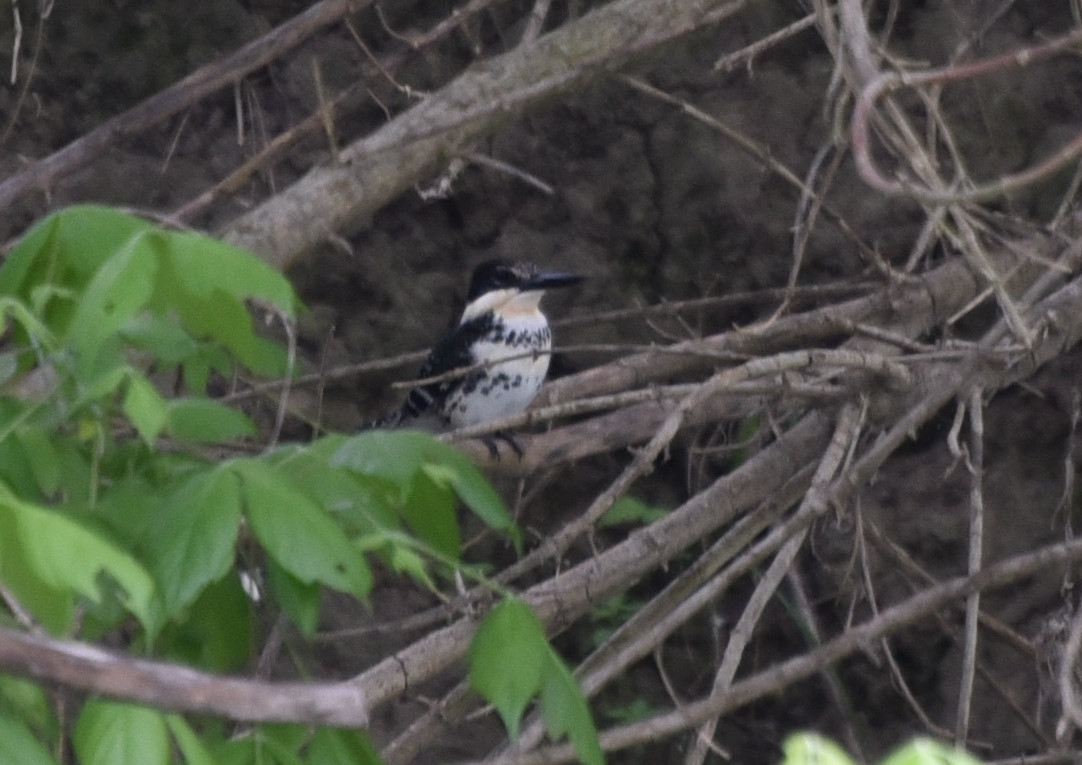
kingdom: Animalia
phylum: Chordata
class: Aves
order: Coraciiformes
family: Alcedinidae
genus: Chloroceryle
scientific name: Chloroceryle americana
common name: Green kingfisher
